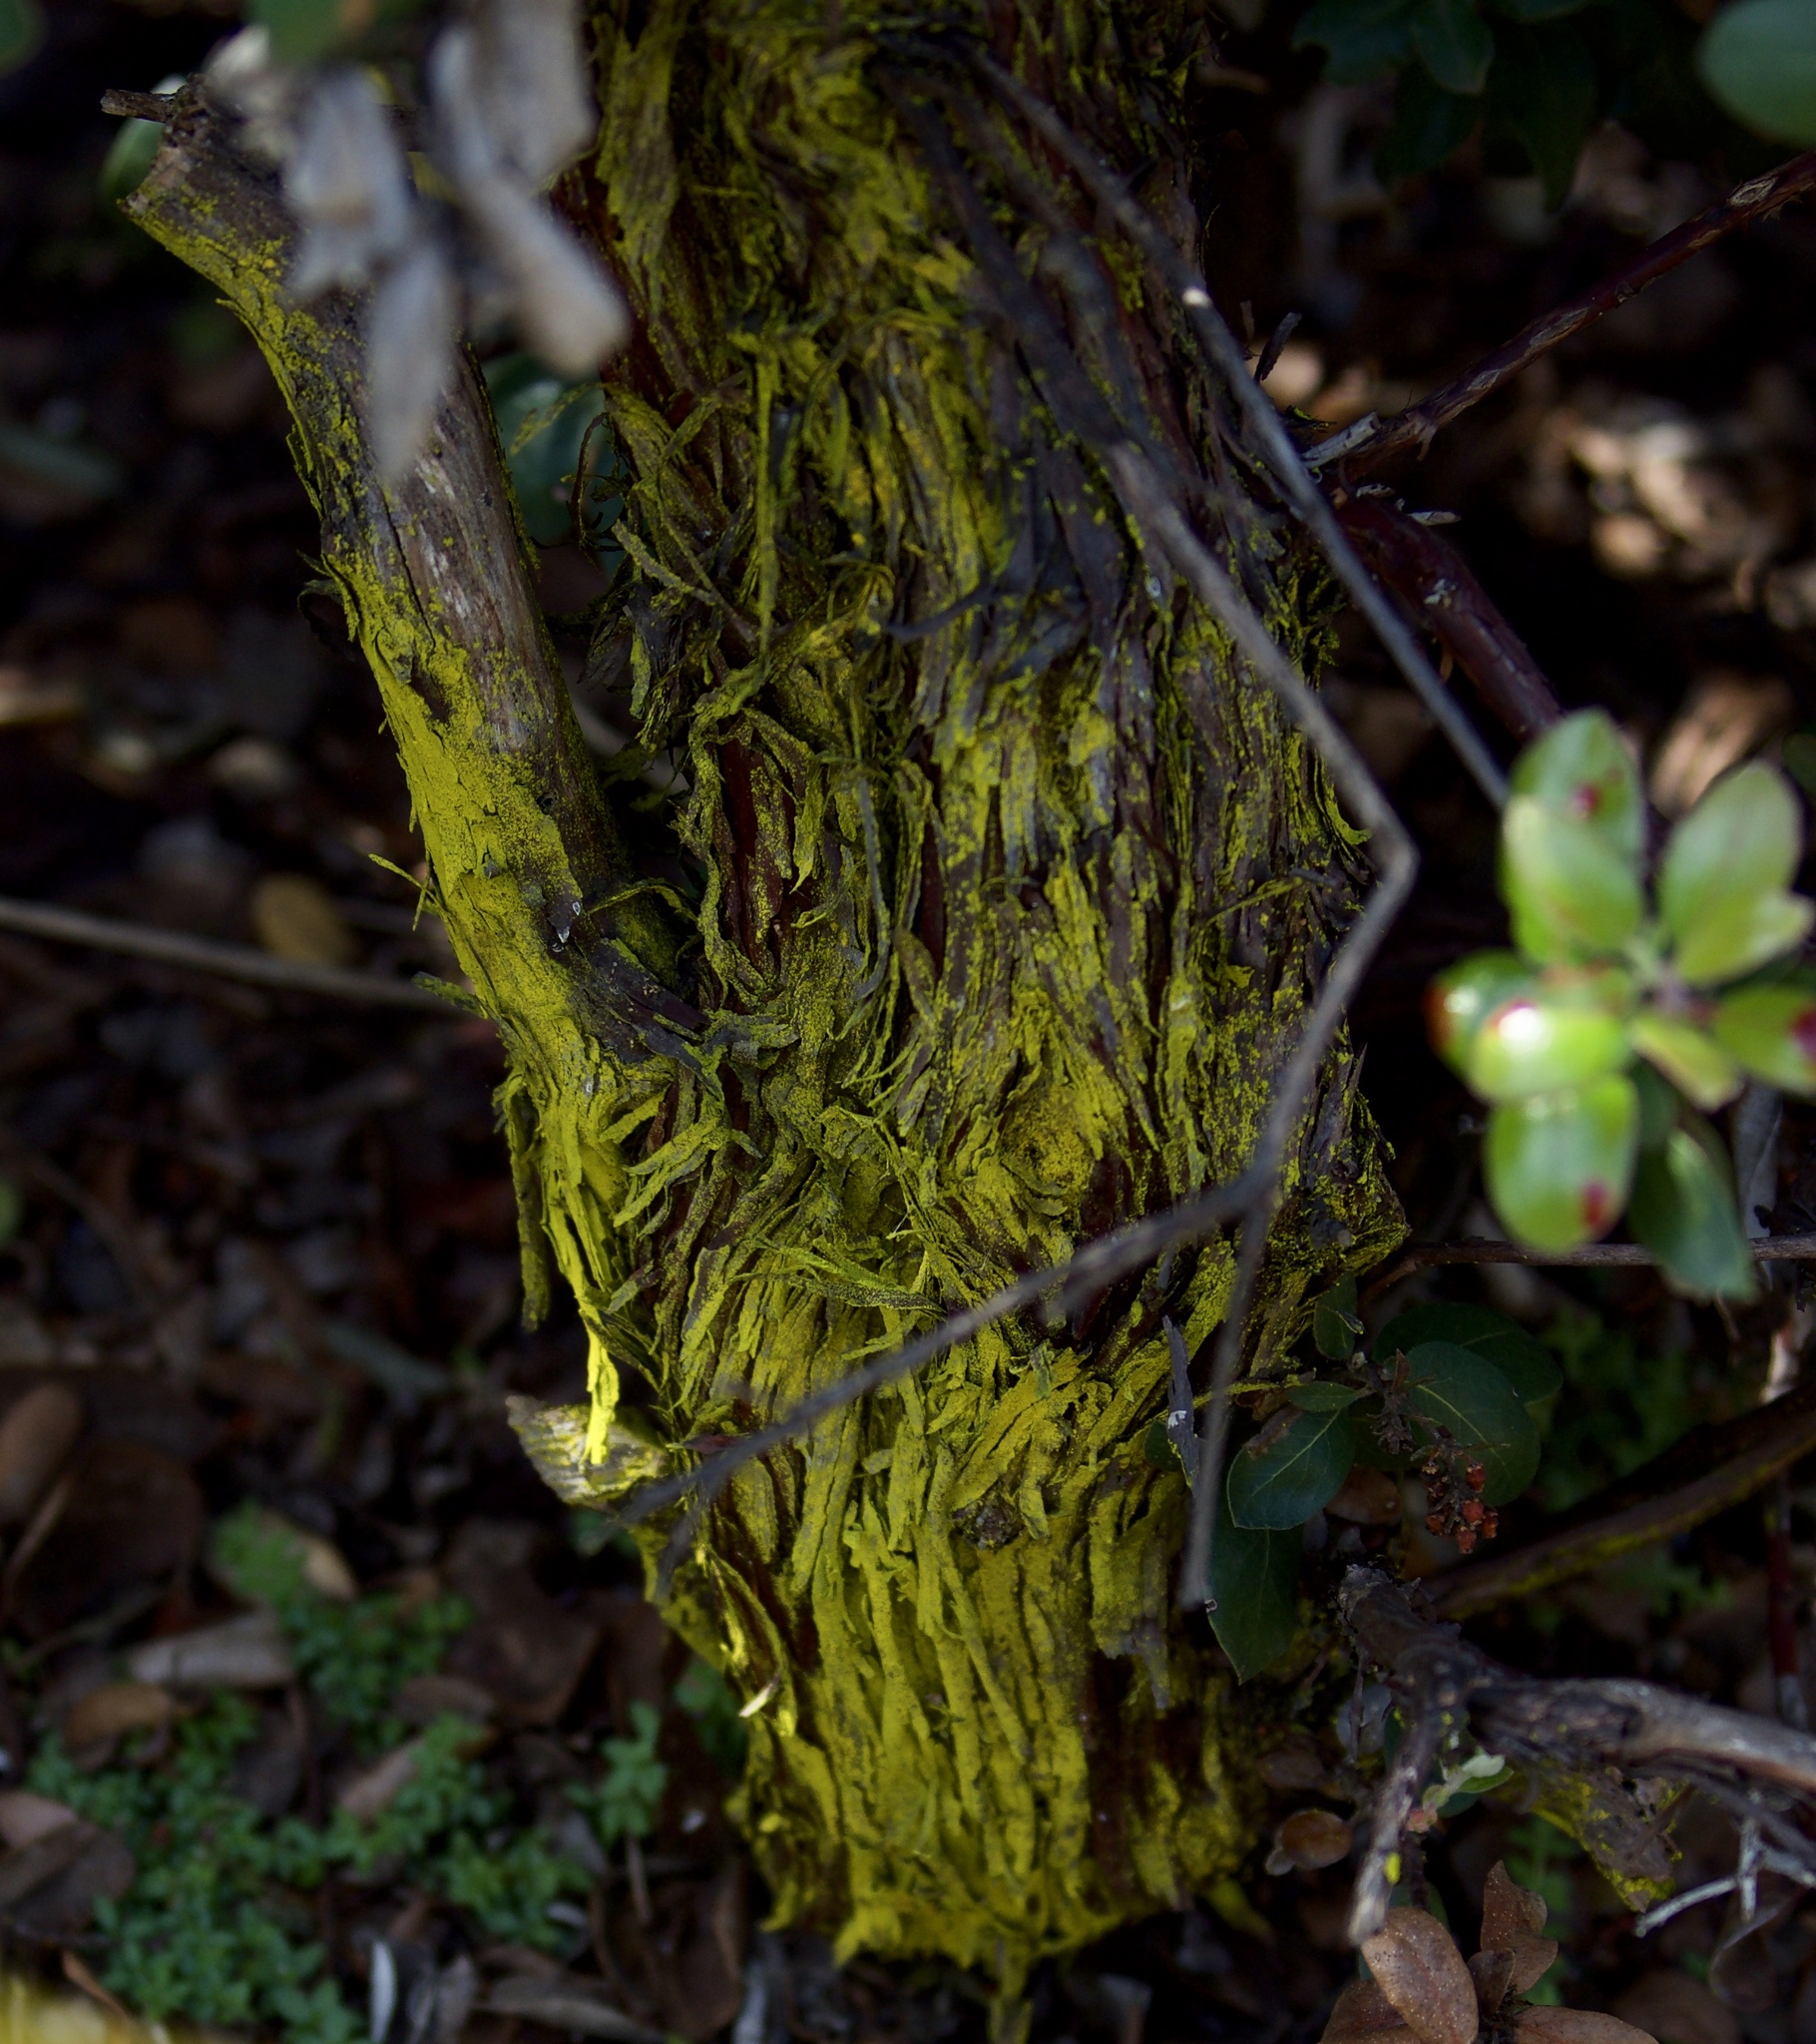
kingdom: Fungi
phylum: Ascomycota
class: Arthoniomycetes
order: Arthoniales
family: Chrysotrichaceae
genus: Chrysothrix
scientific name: Chrysothrix candelaris
